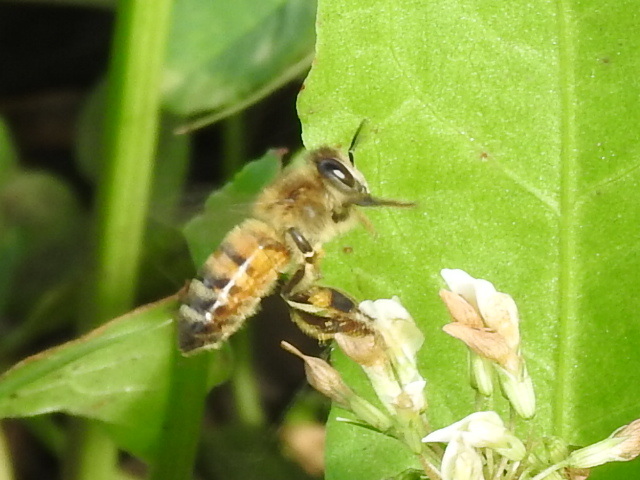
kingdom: Animalia
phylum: Arthropoda
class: Insecta
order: Hymenoptera
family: Apidae
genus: Apis
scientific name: Apis mellifera
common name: Honey bee
